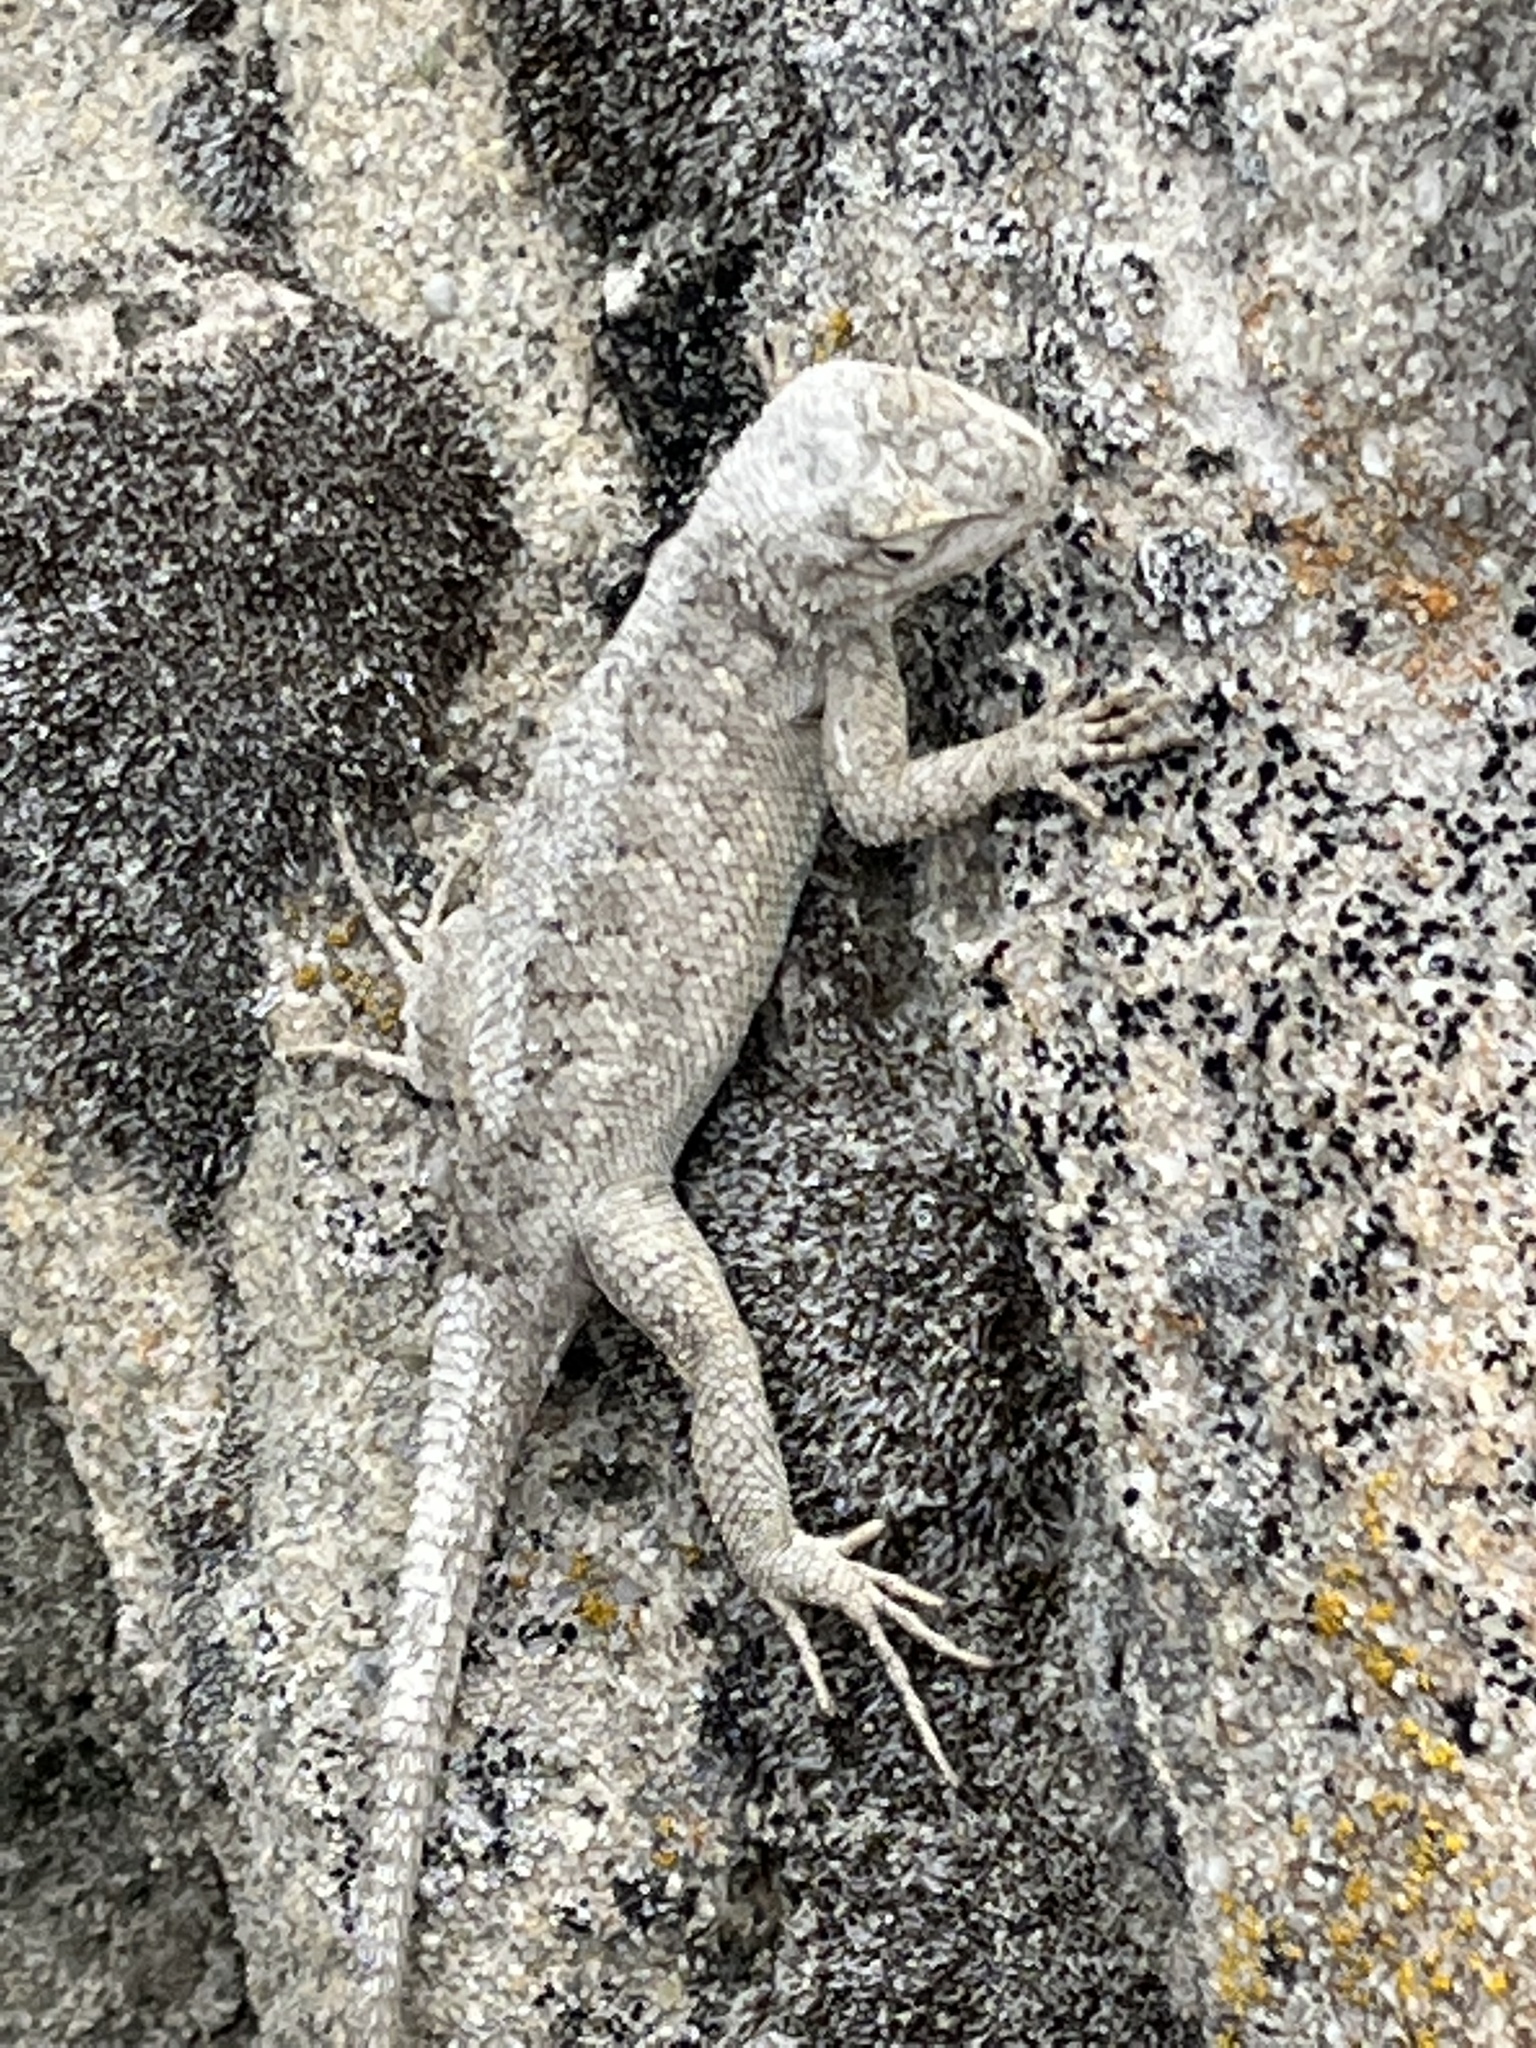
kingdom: Animalia
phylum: Chordata
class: Squamata
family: Phrynosomatidae
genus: Sceloporus
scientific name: Sceloporus tristichus
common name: Plateau fence lizard
